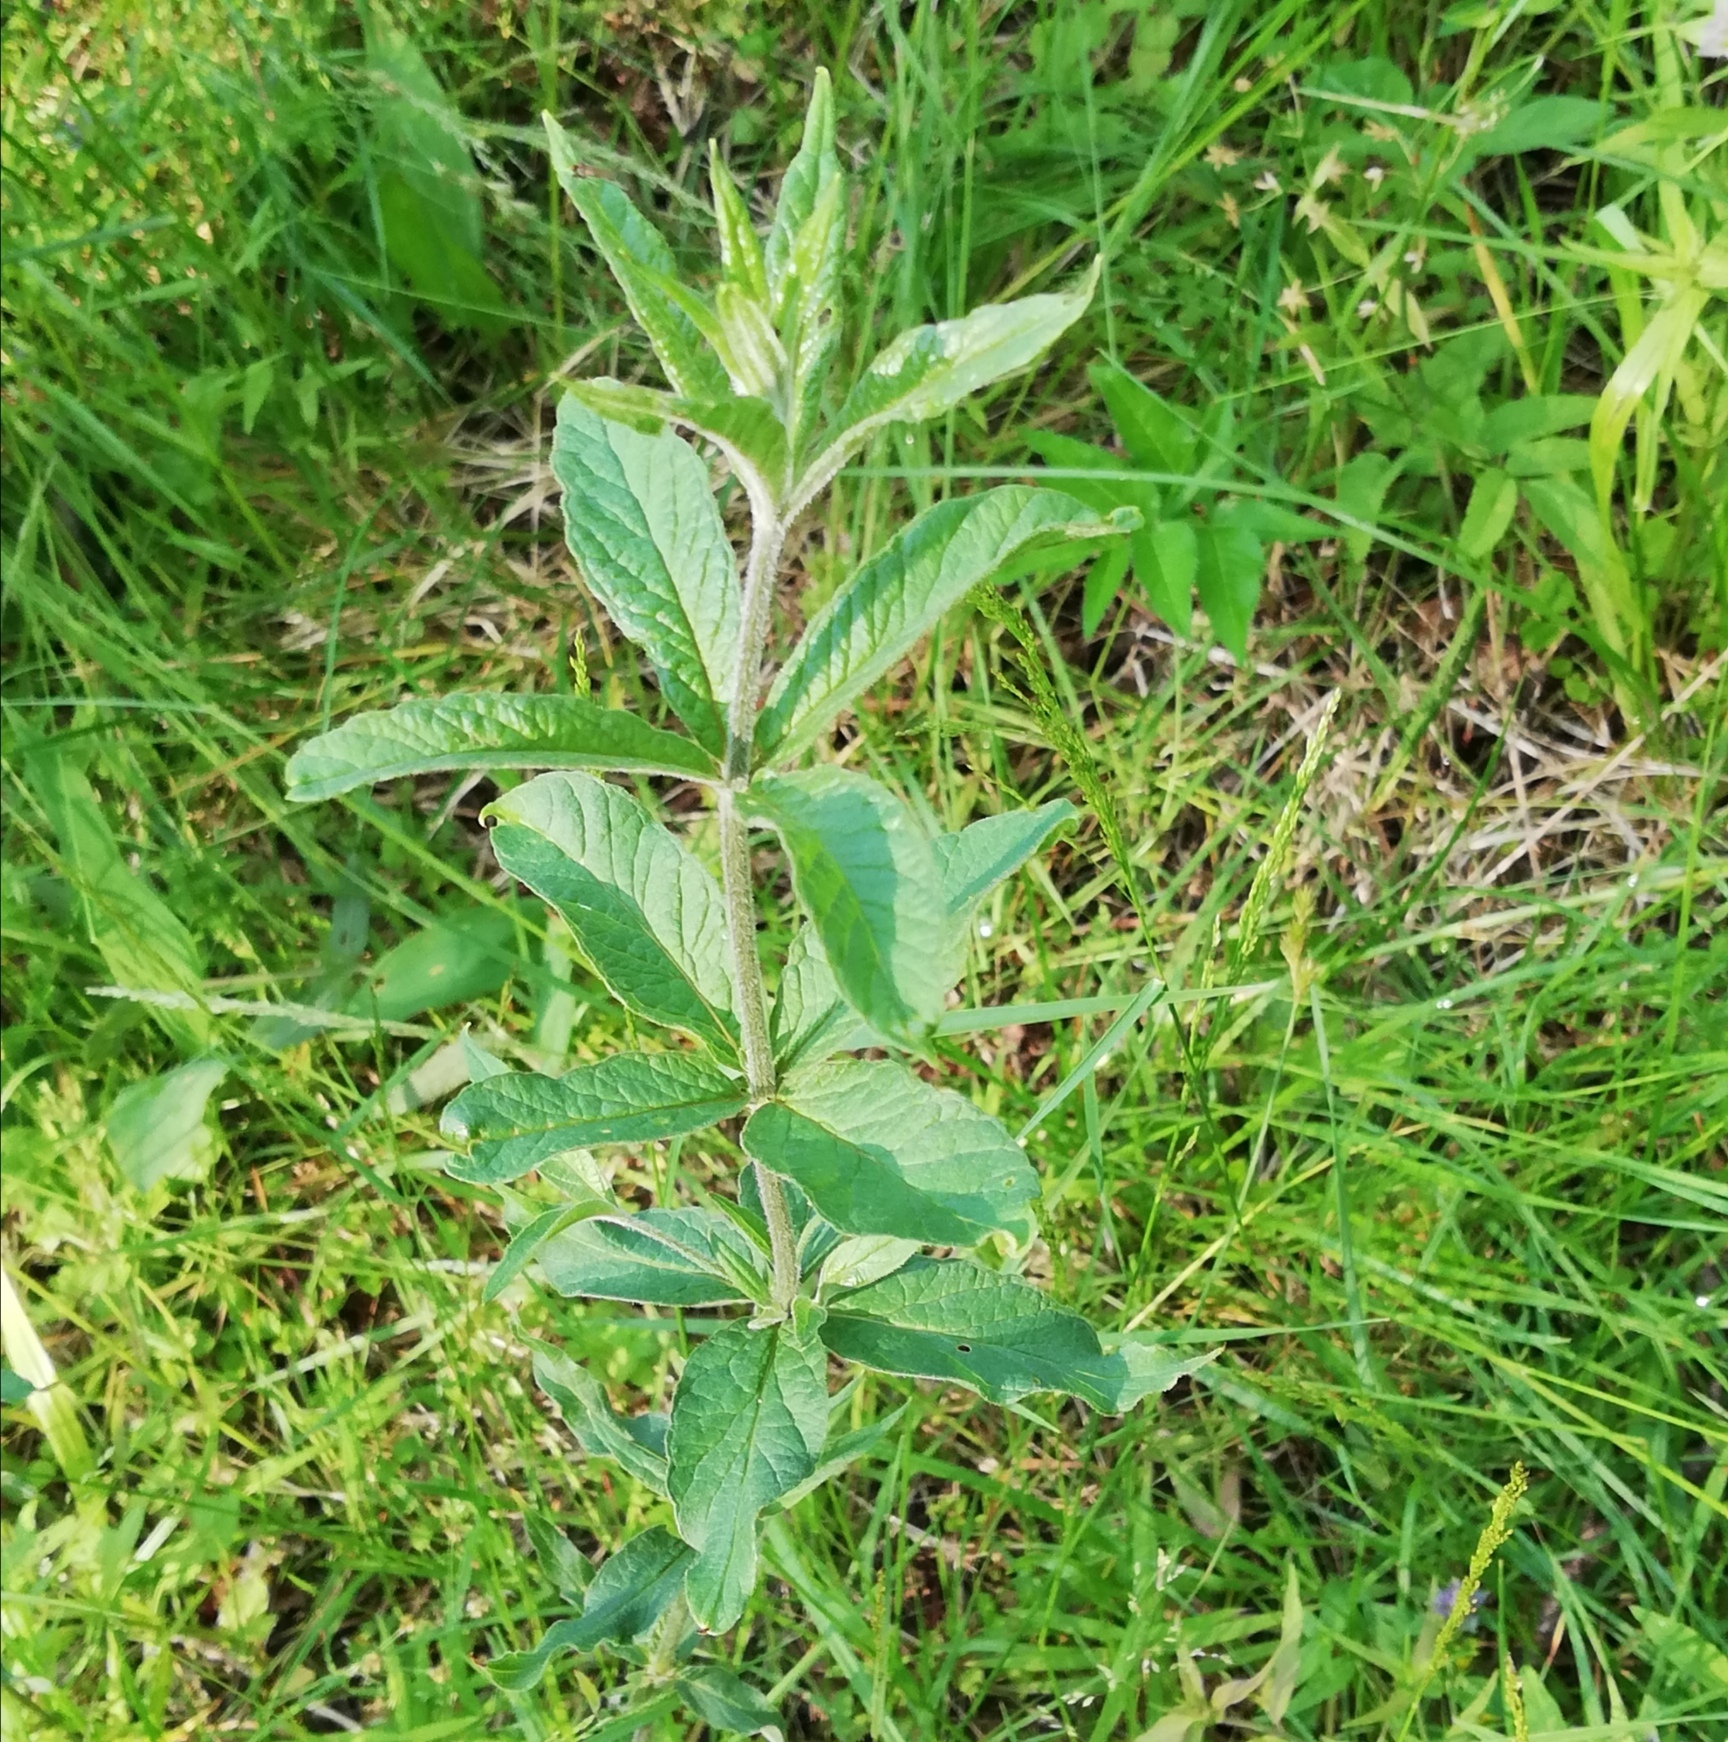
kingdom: Plantae
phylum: Tracheophyta
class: Magnoliopsida
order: Ericales
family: Primulaceae
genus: Lysimachia
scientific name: Lysimachia vulgaris
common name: Yellow loosestrife
